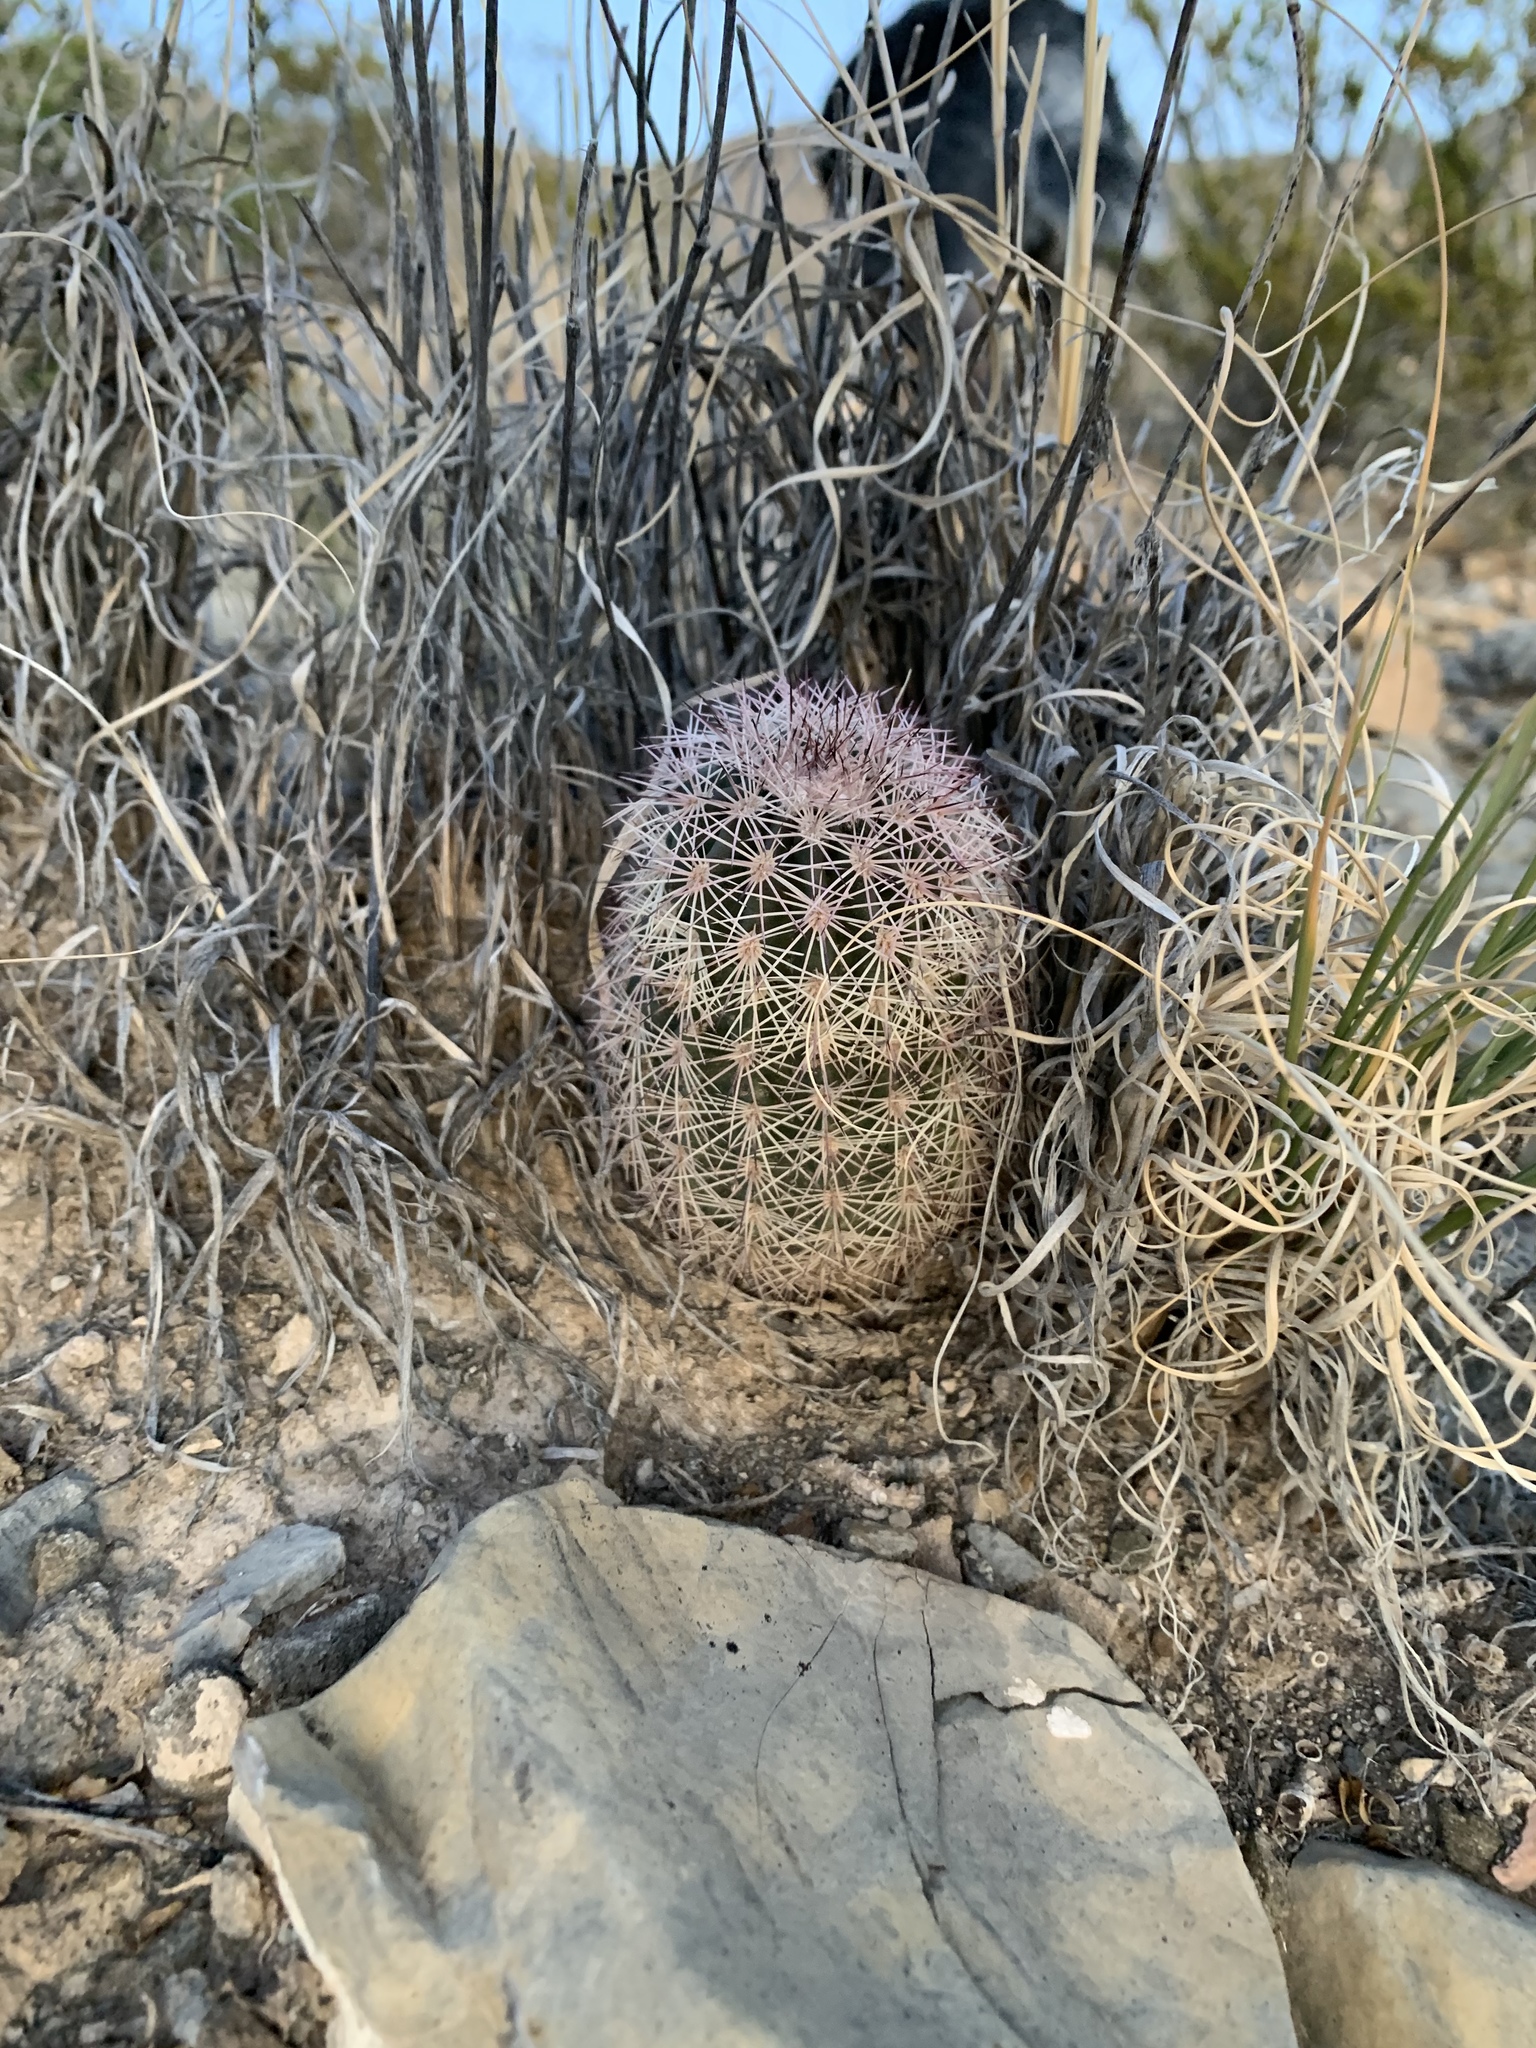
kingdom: Plantae
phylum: Tracheophyta
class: Magnoliopsida
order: Caryophyllales
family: Cactaceae
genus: Echinocereus
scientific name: Echinocereus dasyacanthus
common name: Spiny hedgehog cactus
